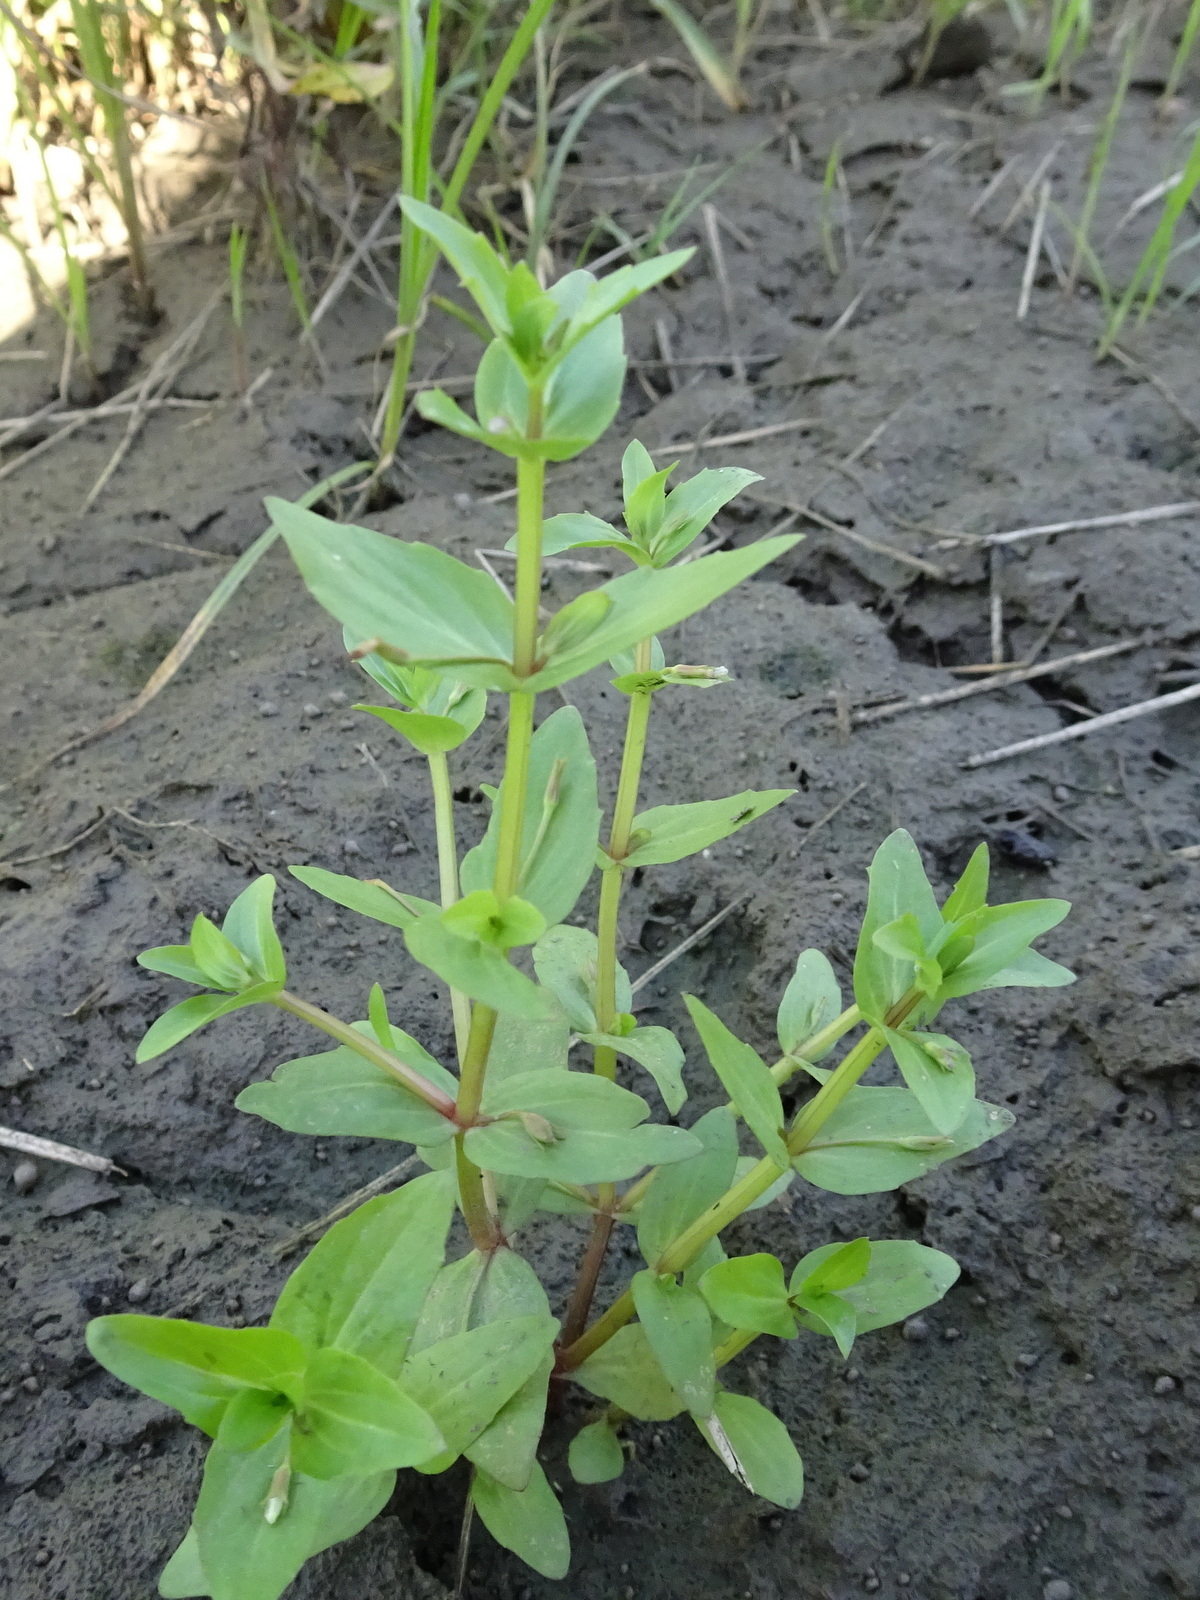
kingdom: Plantae
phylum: Tracheophyta
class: Magnoliopsida
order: Lamiales
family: Linderniaceae
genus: Lindernia
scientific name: Lindernia dubia
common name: Annual false pimpernel
